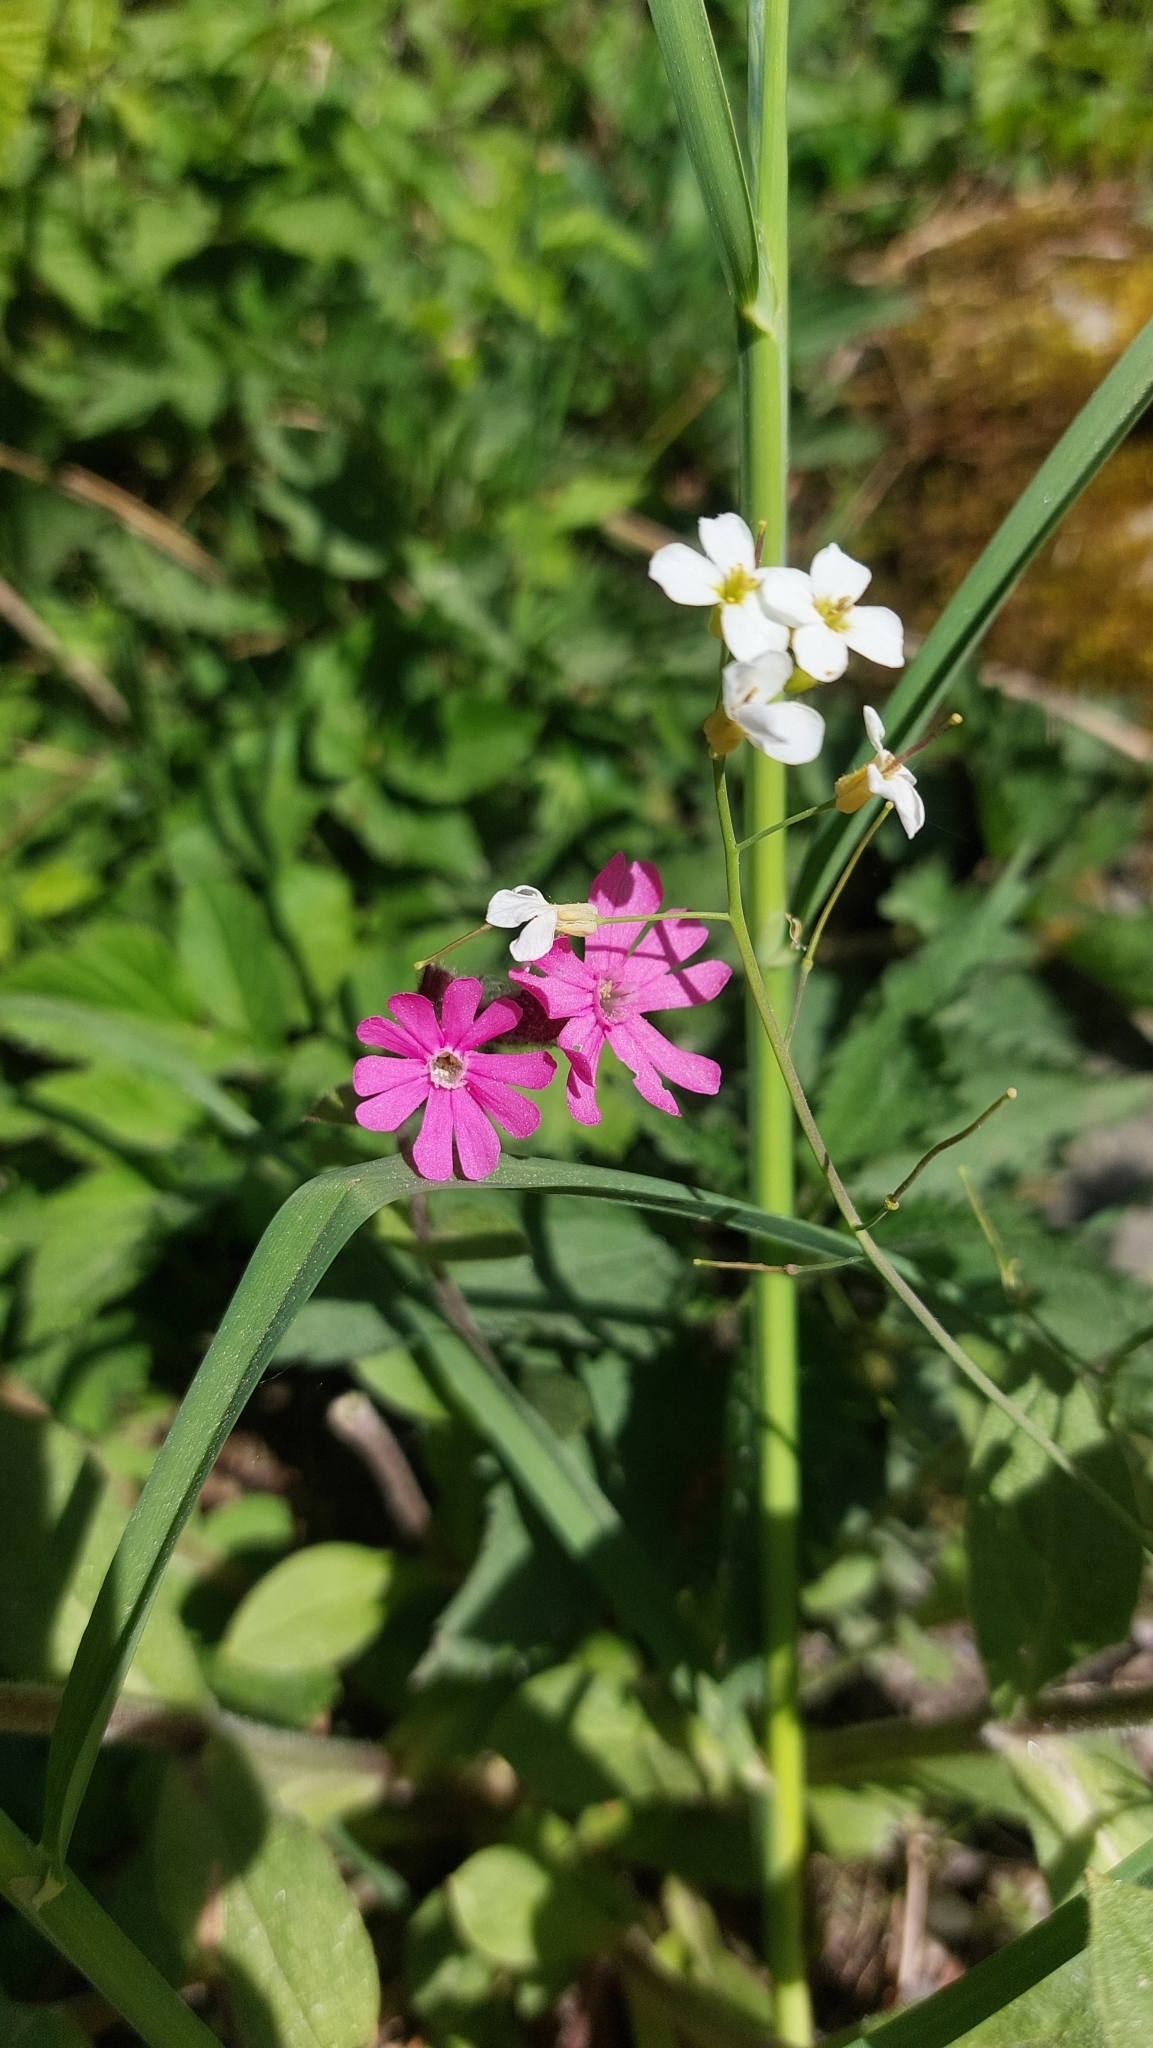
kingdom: Plantae
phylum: Tracheophyta
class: Magnoliopsida
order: Caryophyllales
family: Caryophyllaceae
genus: Silene
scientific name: Silene dioica
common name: Red campion
